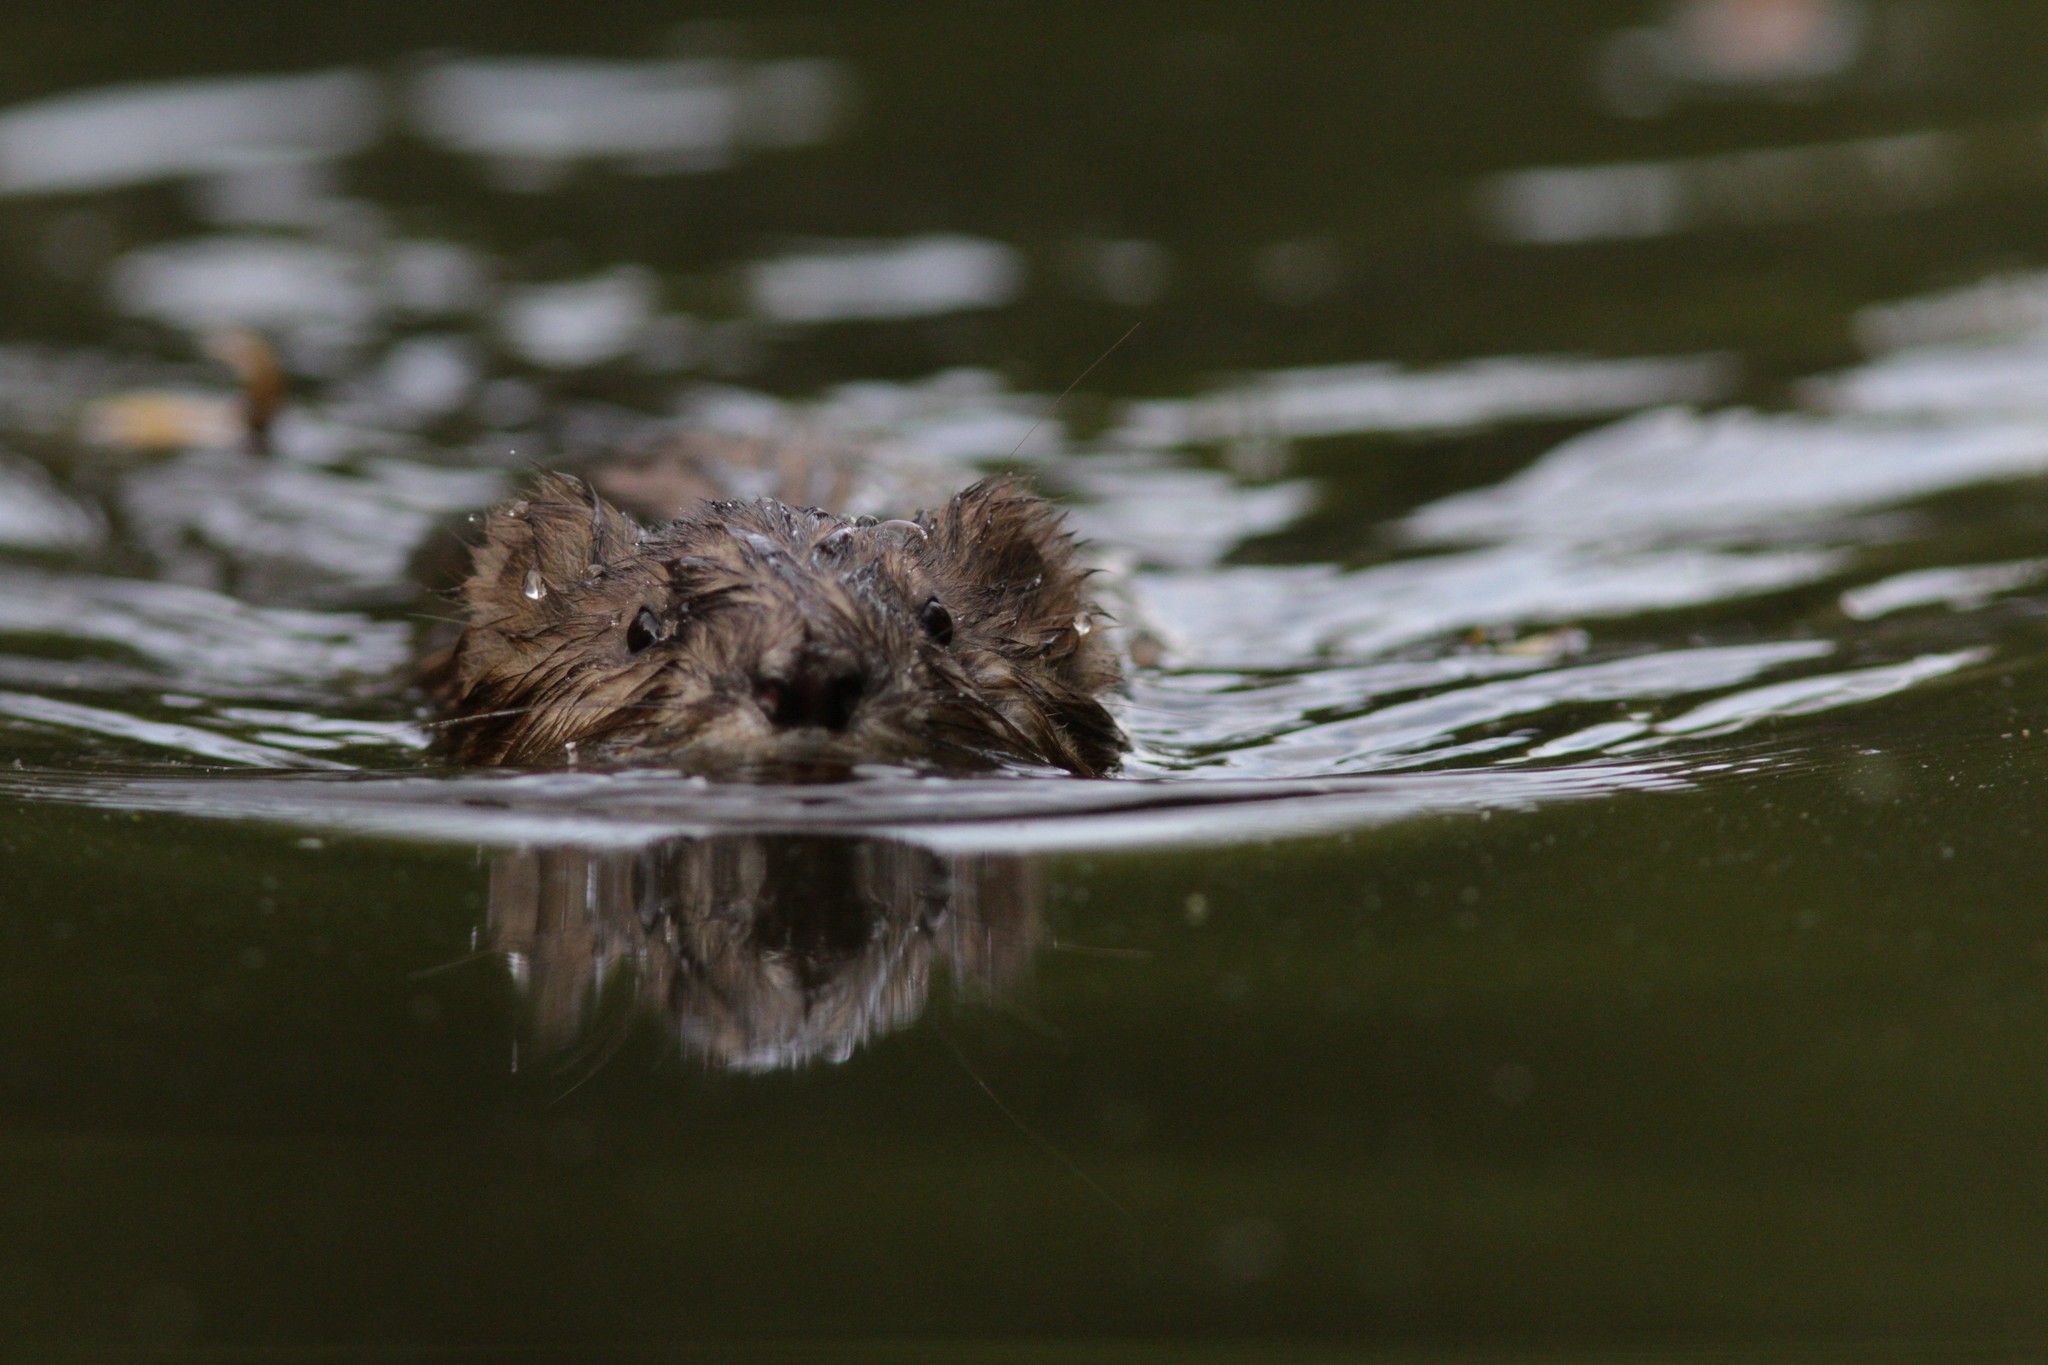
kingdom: Animalia
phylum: Chordata
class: Mammalia
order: Rodentia
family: Cricetidae
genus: Ondatra
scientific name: Ondatra zibethicus
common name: Muskrat
